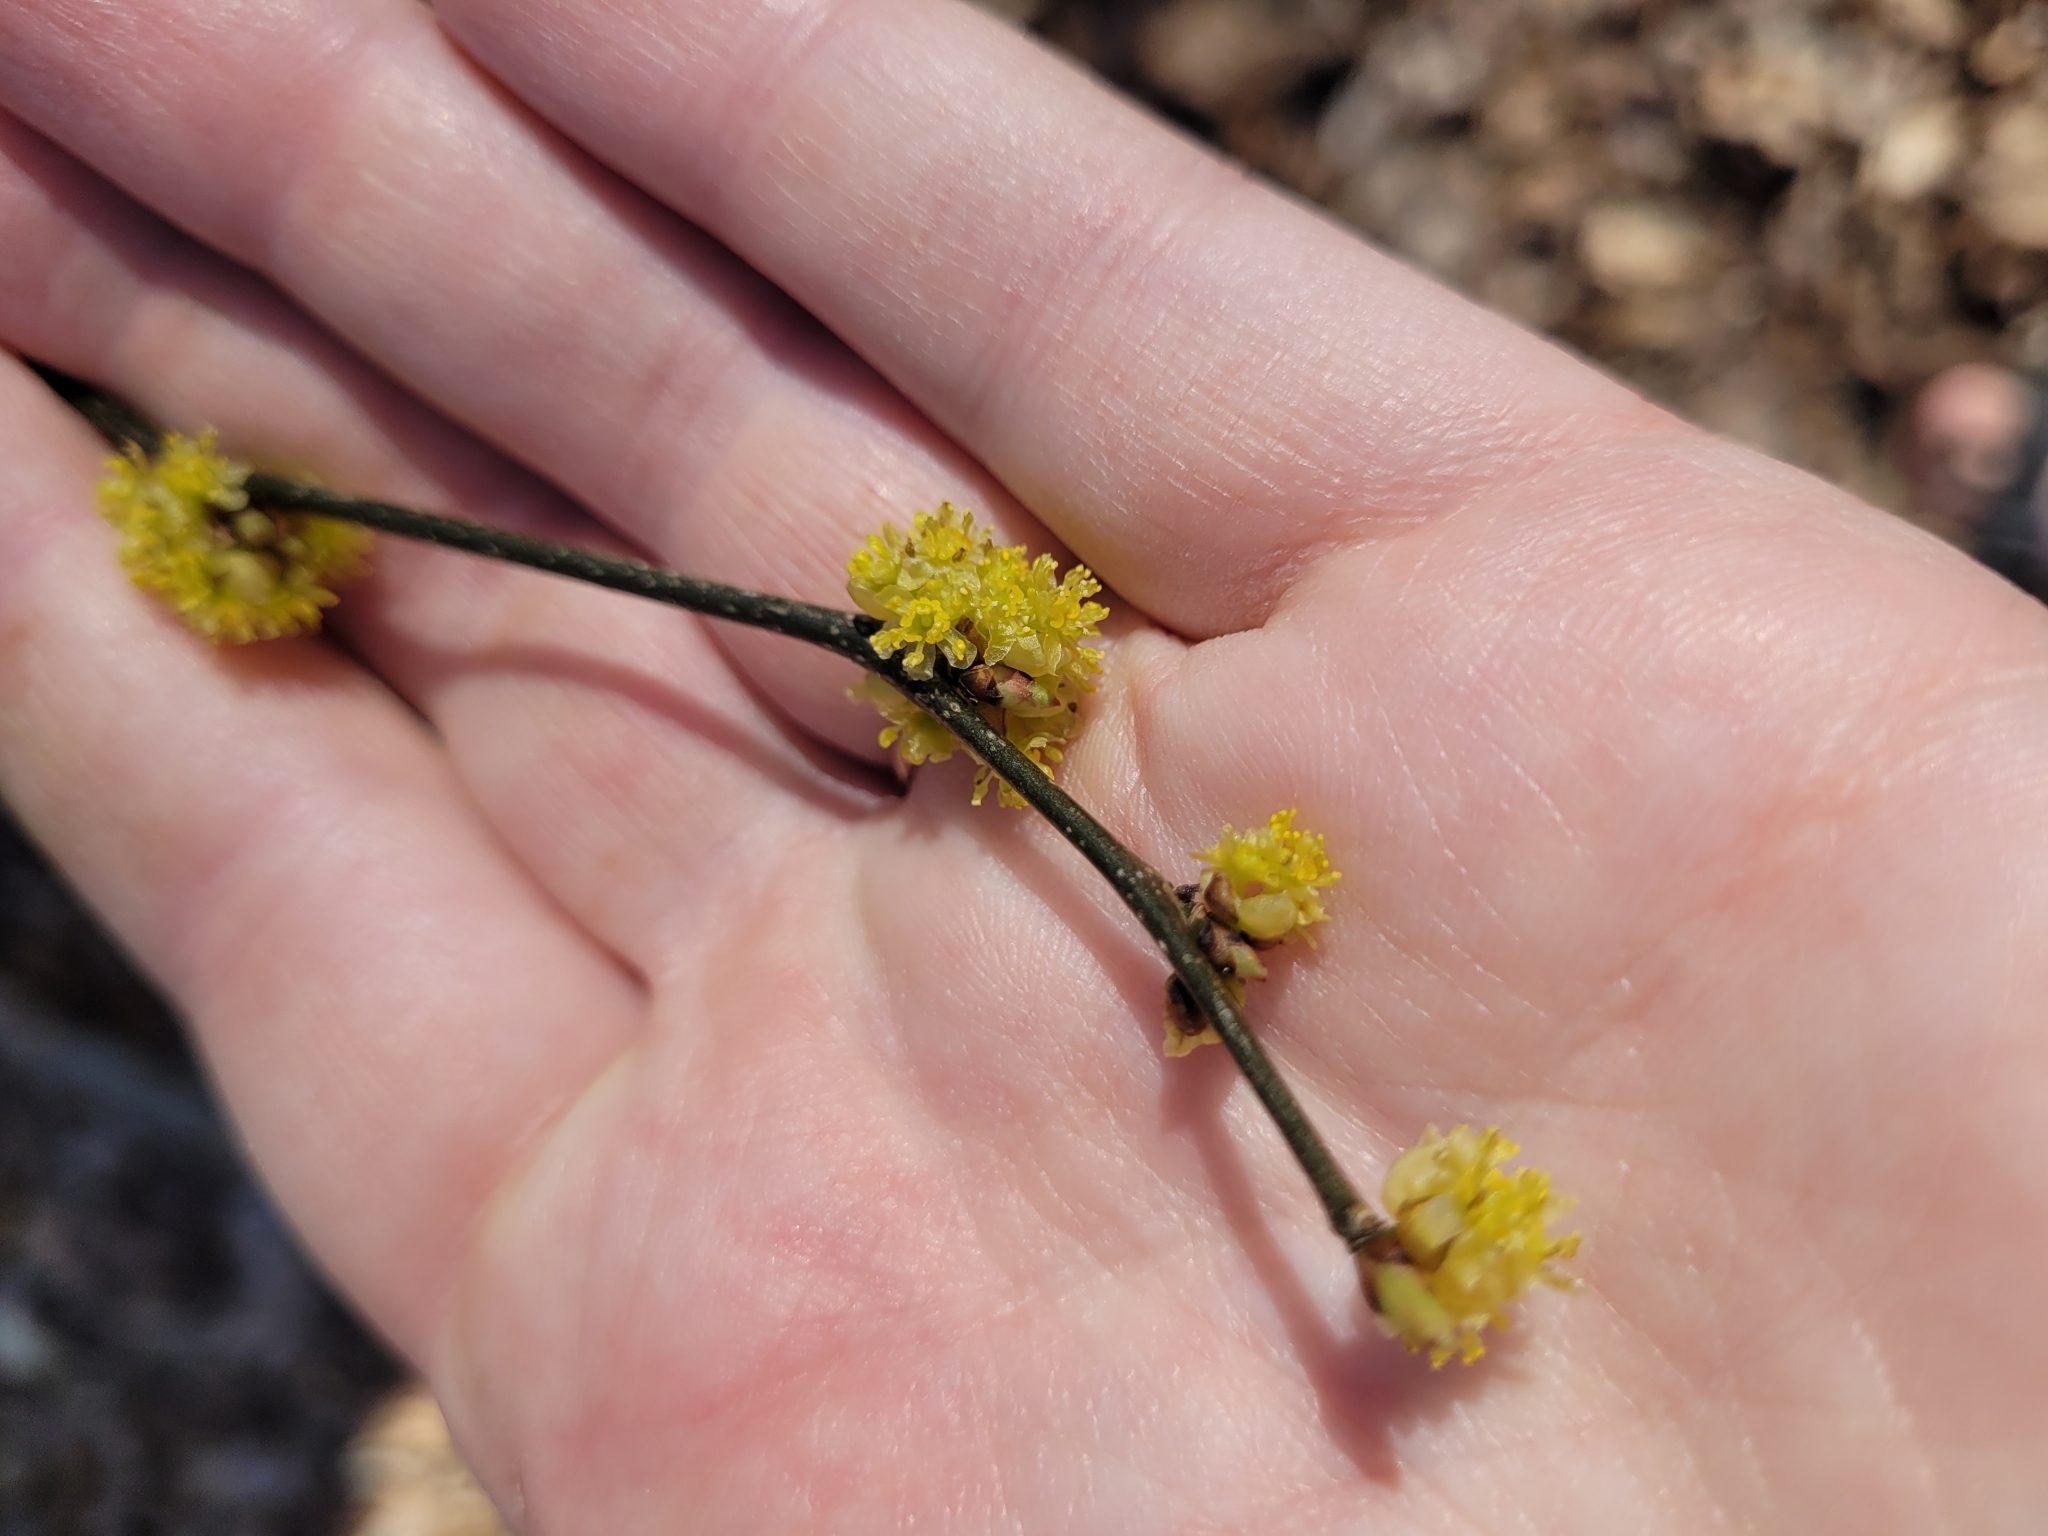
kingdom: Plantae
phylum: Tracheophyta
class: Magnoliopsida
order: Laurales
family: Lauraceae
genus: Lindera
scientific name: Lindera benzoin
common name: Spicebush
